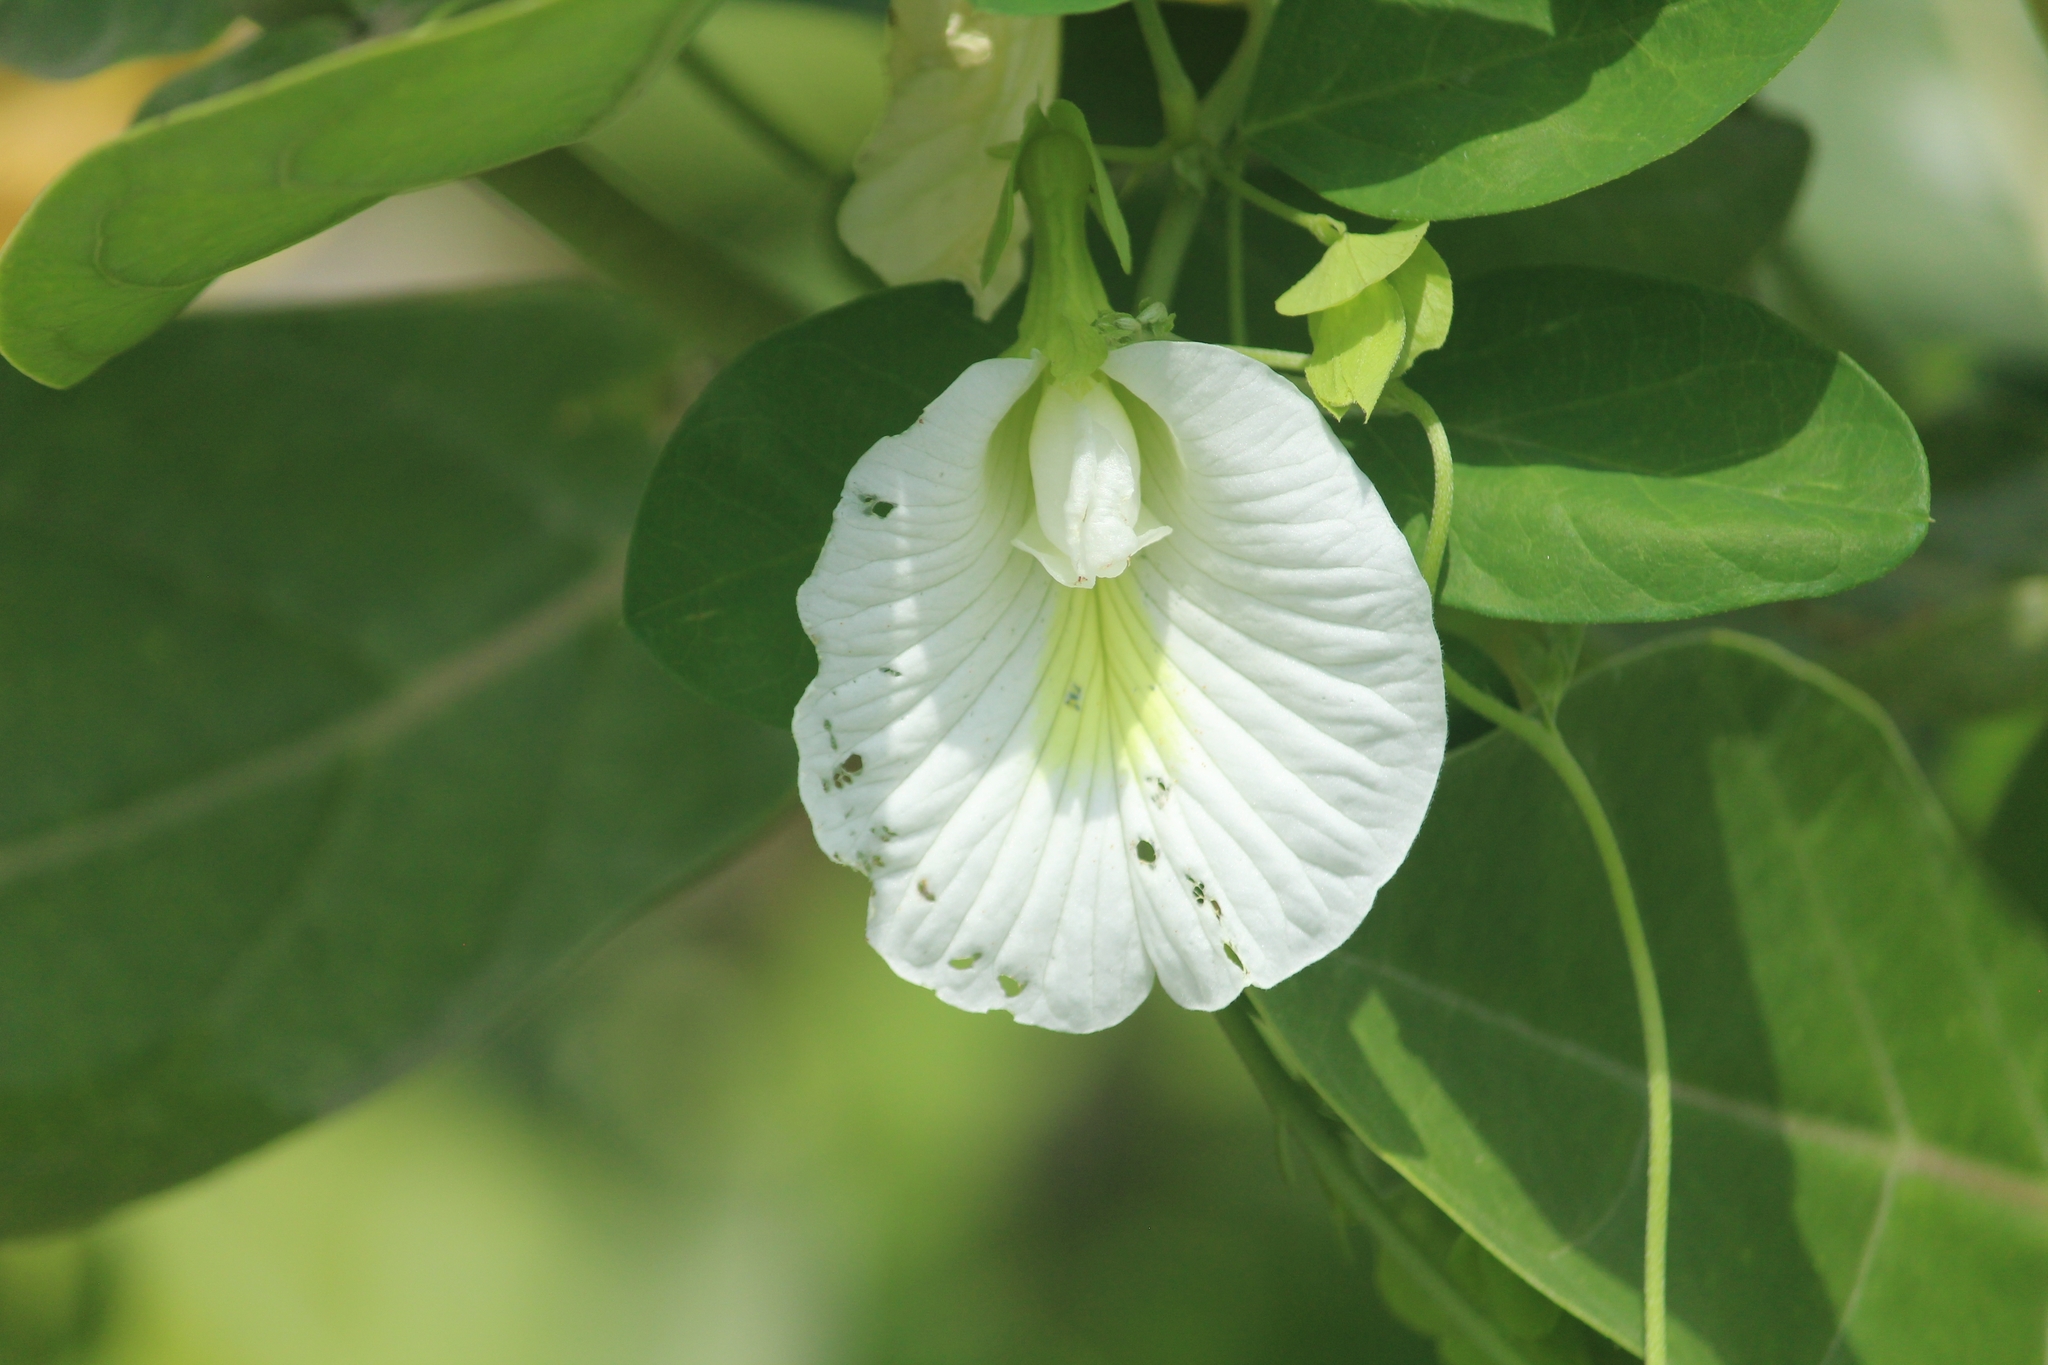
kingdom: Plantae
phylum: Tracheophyta
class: Magnoliopsida
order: Fabales
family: Fabaceae
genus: Clitoria
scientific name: Clitoria ternatea
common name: Asian pigeonwings
